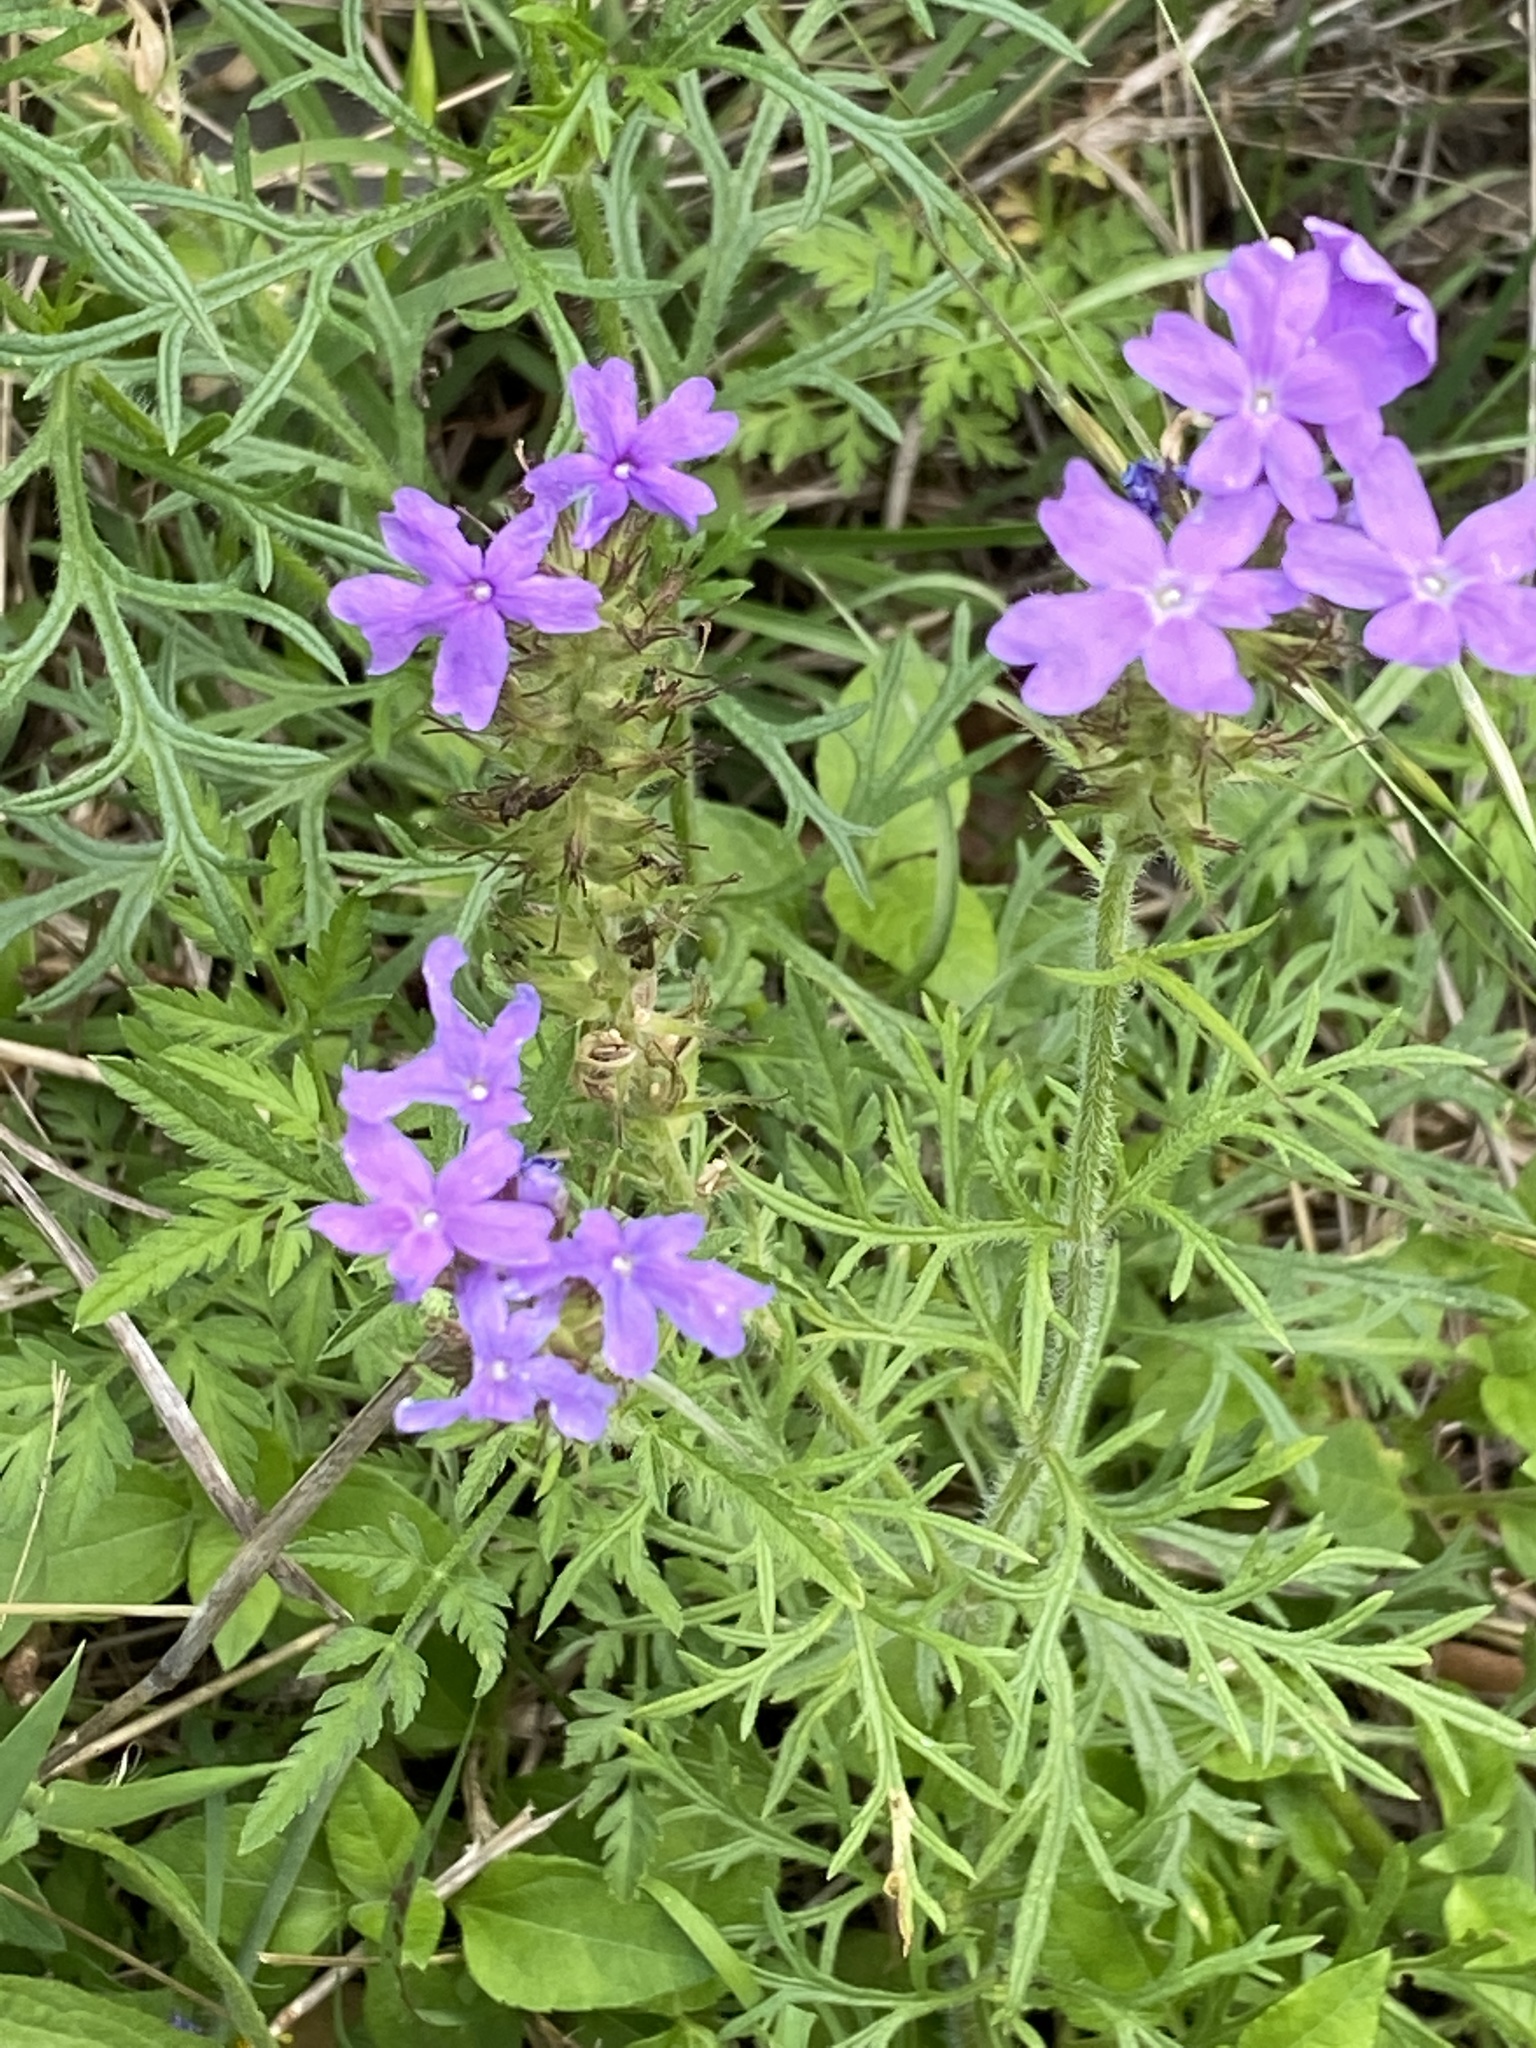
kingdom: Plantae
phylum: Tracheophyta
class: Magnoliopsida
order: Lamiales
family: Verbenaceae
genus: Verbena
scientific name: Verbena bipinnatifida
